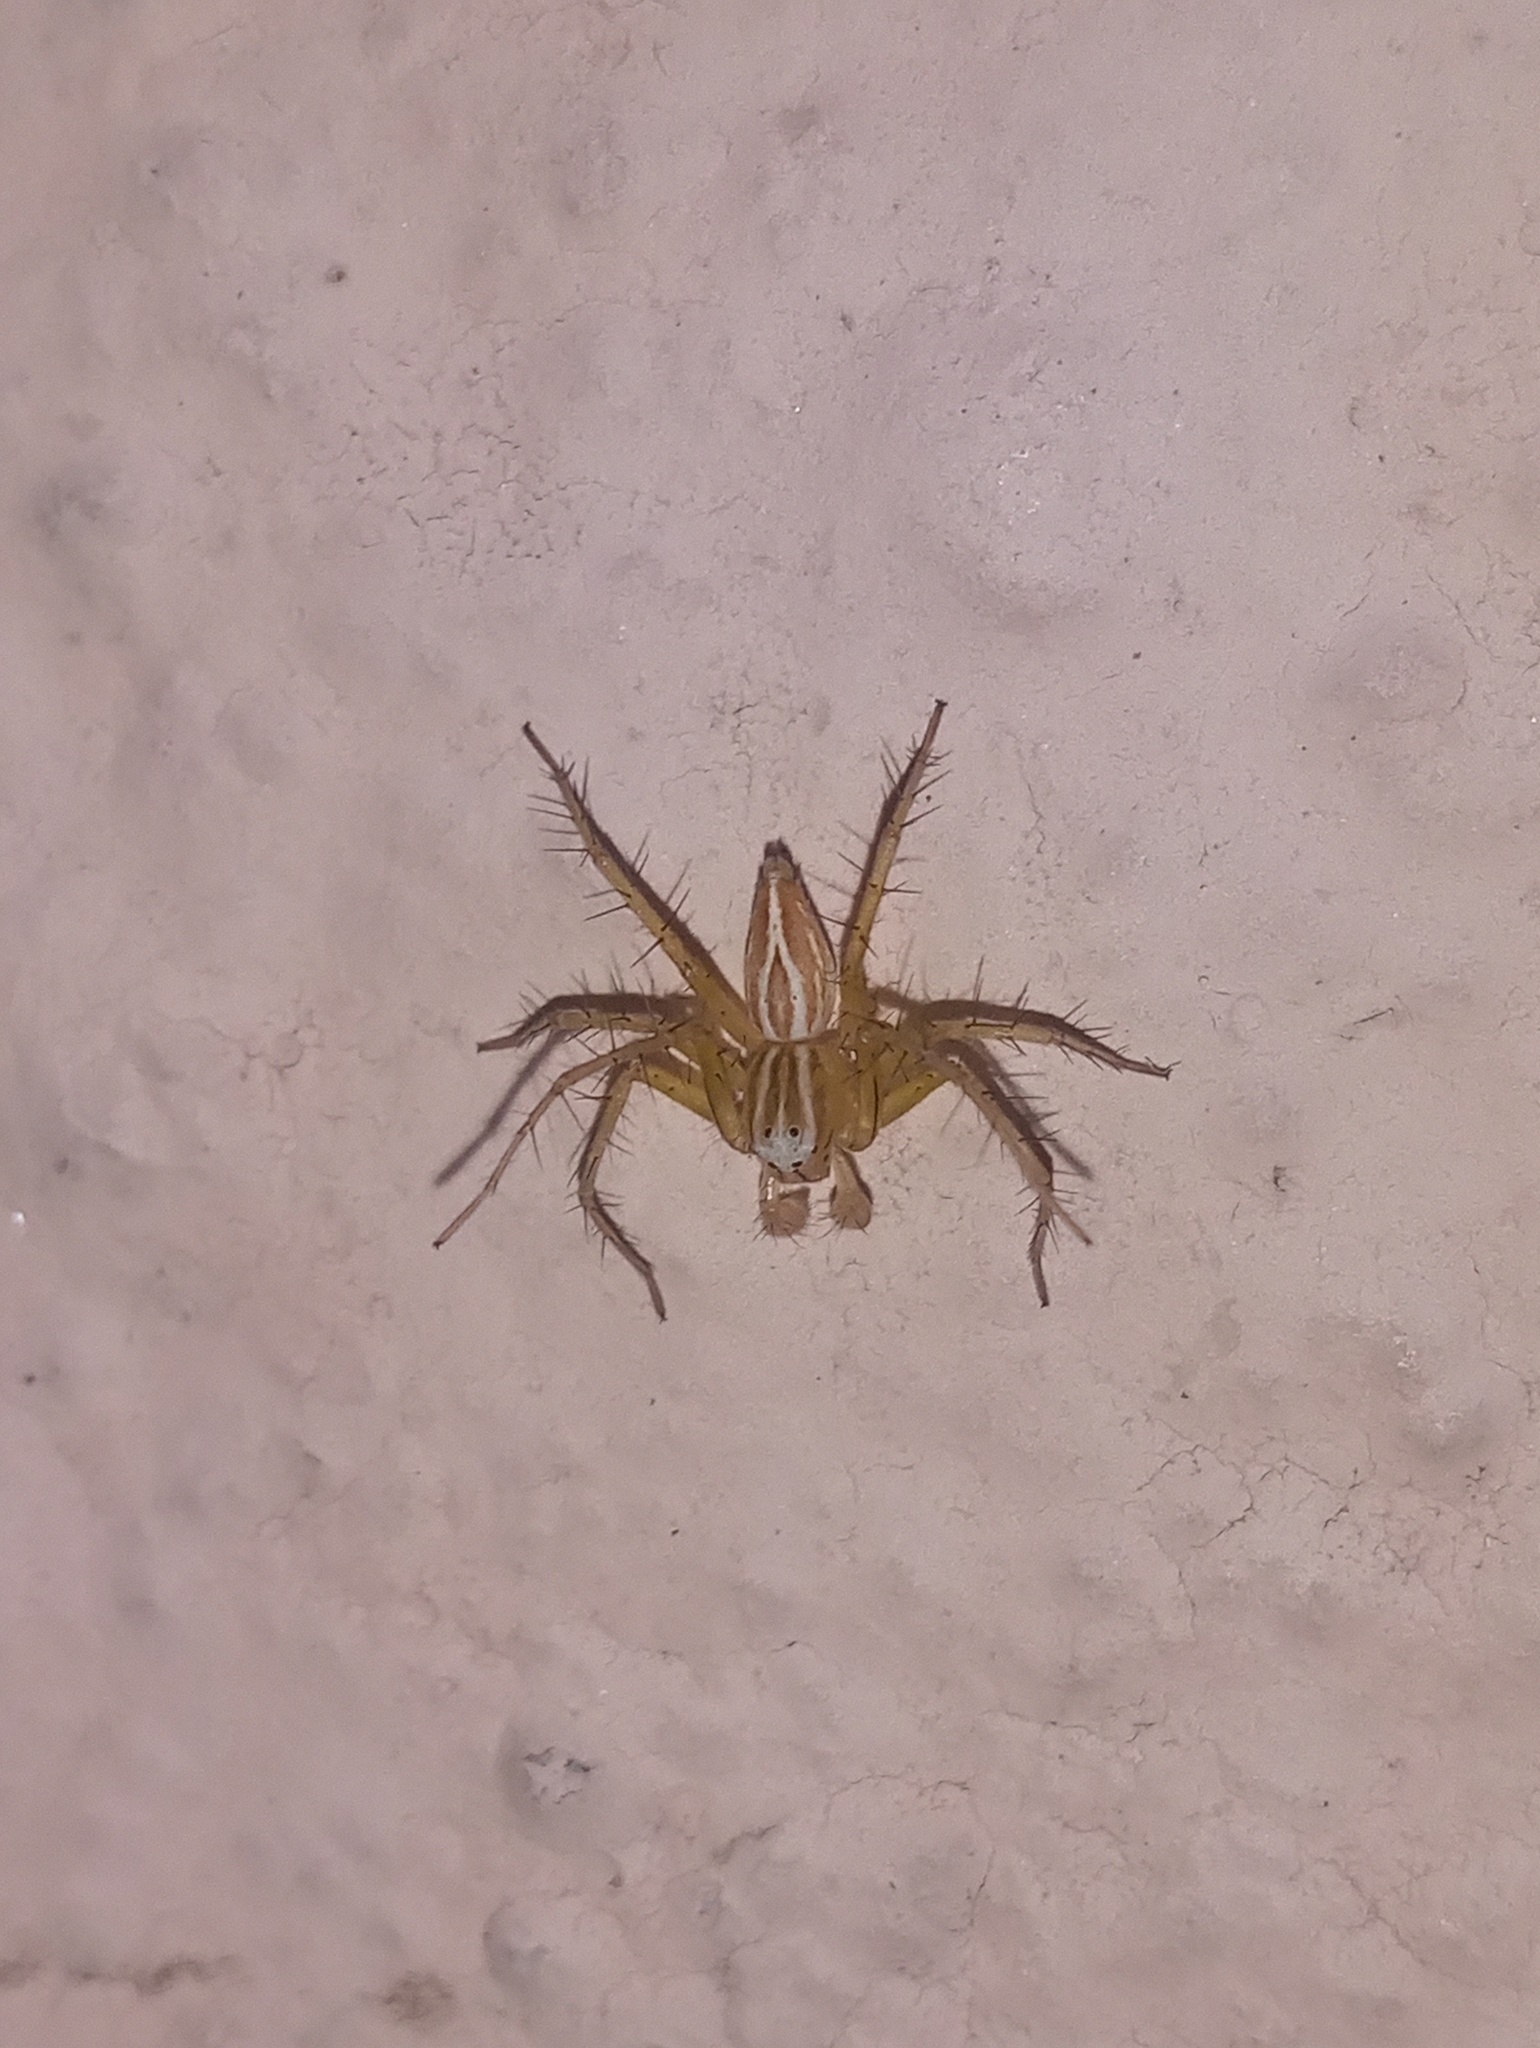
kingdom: Animalia
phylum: Arthropoda
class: Arachnida
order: Araneae
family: Oxyopidae
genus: Oxyopes
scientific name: Oxyopes salticus
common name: Lynx spiders
